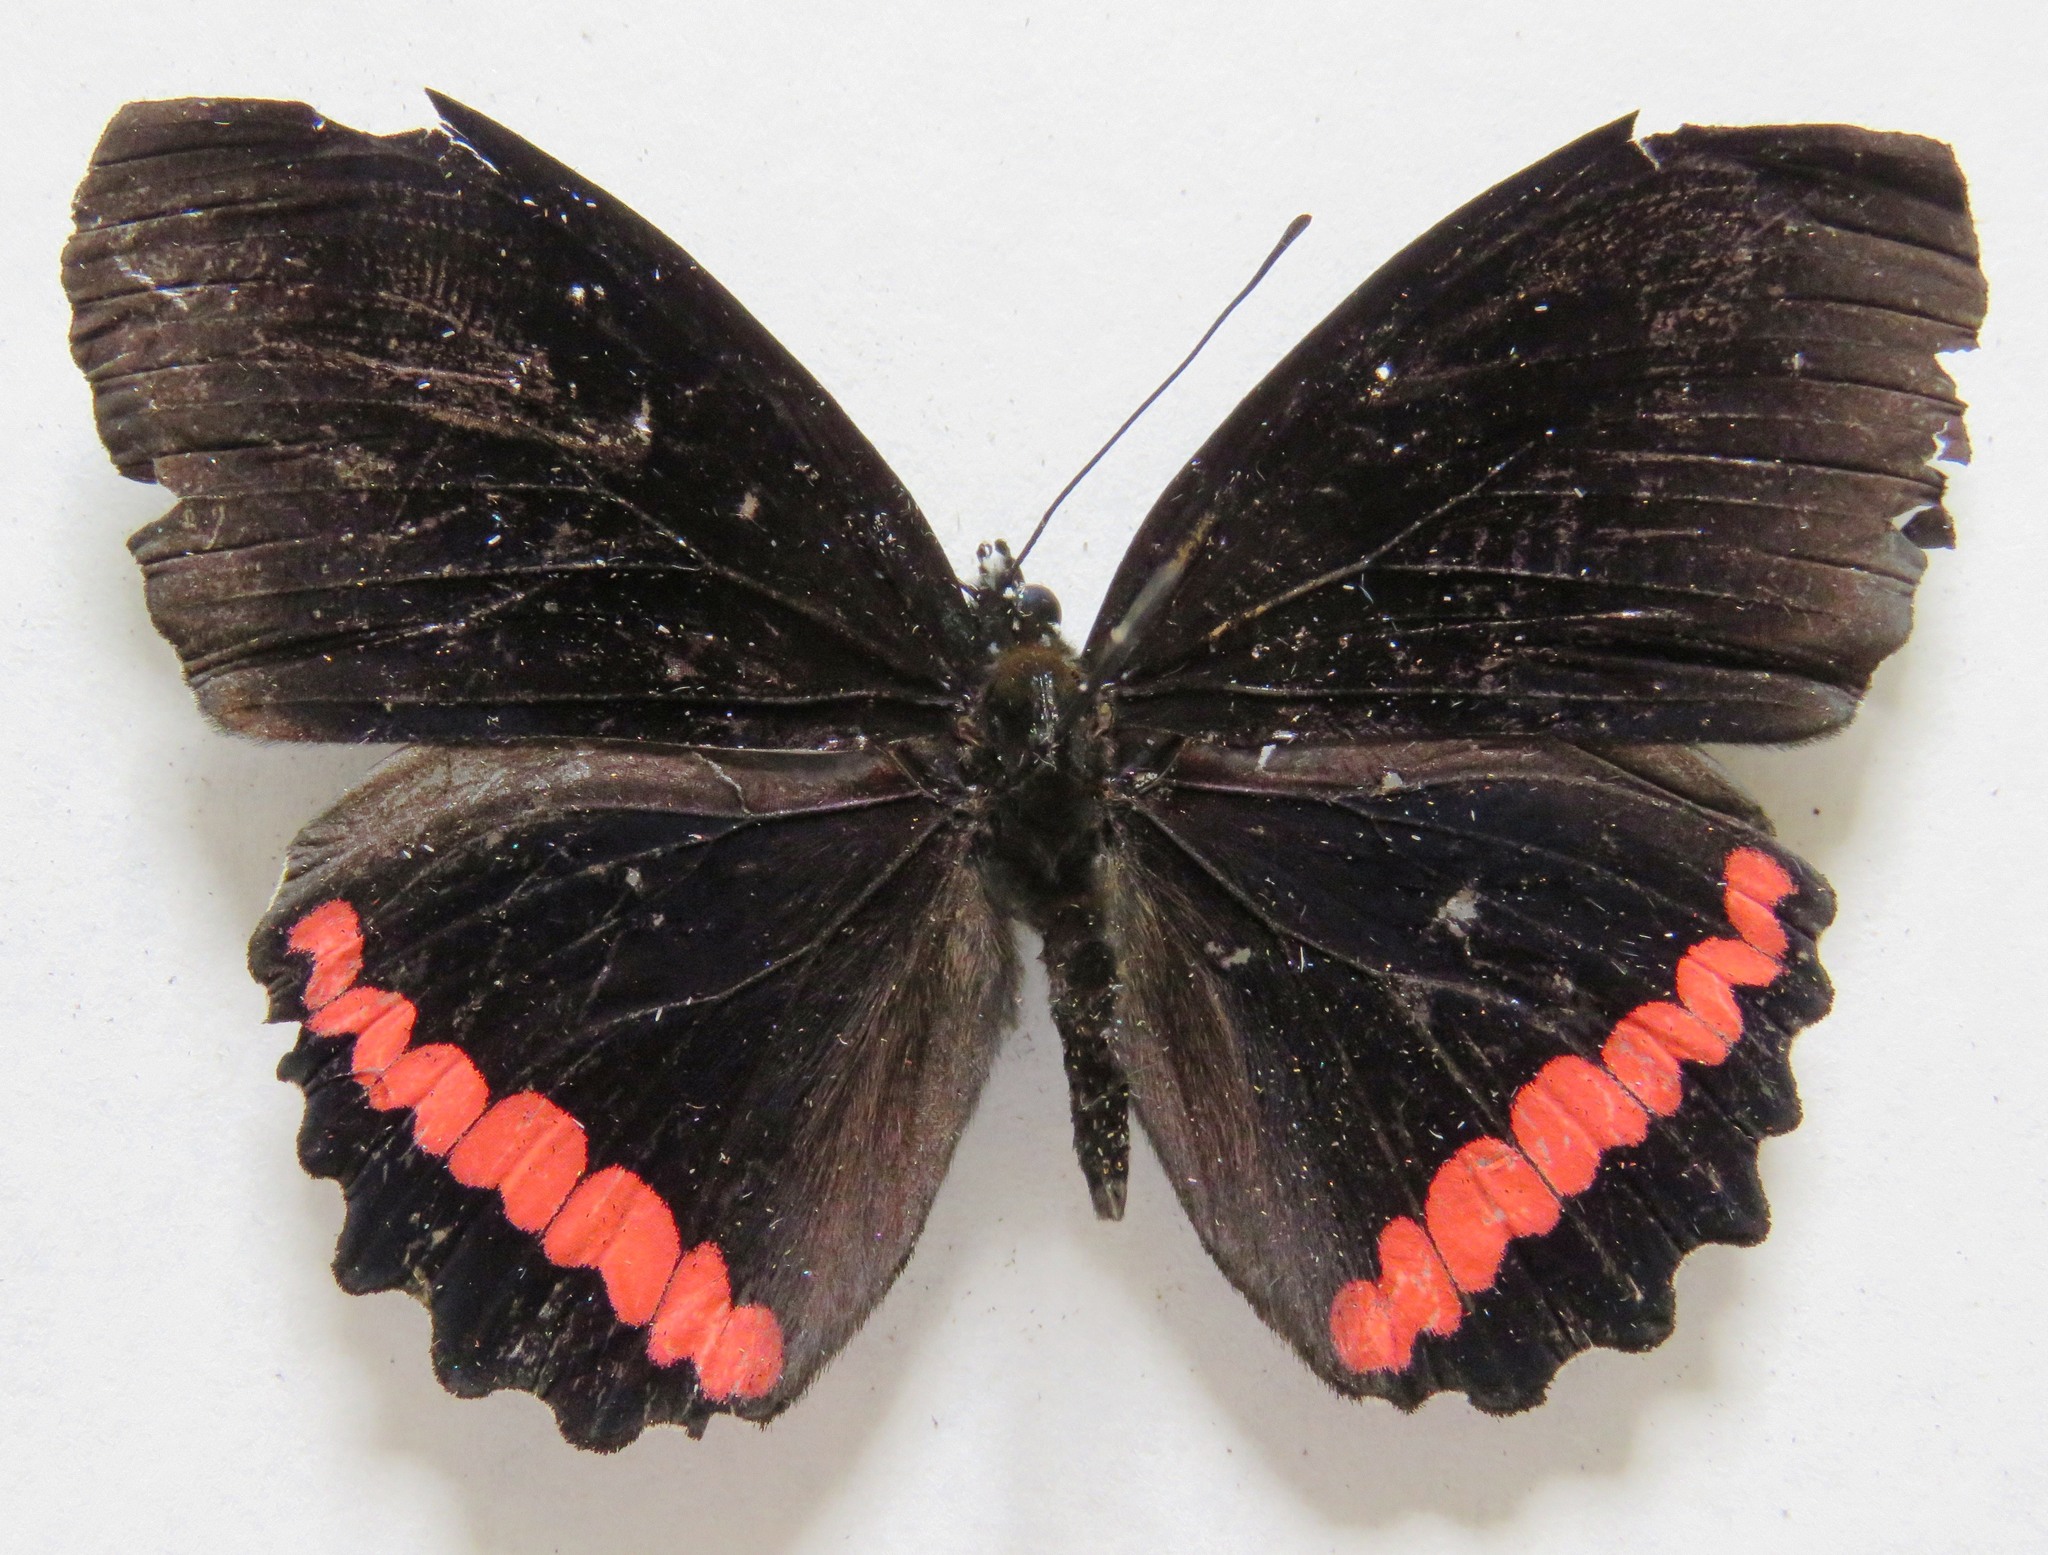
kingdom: Animalia
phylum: Arthropoda
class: Insecta
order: Lepidoptera
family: Nymphalidae
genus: Biblis
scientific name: Biblis aganisa
